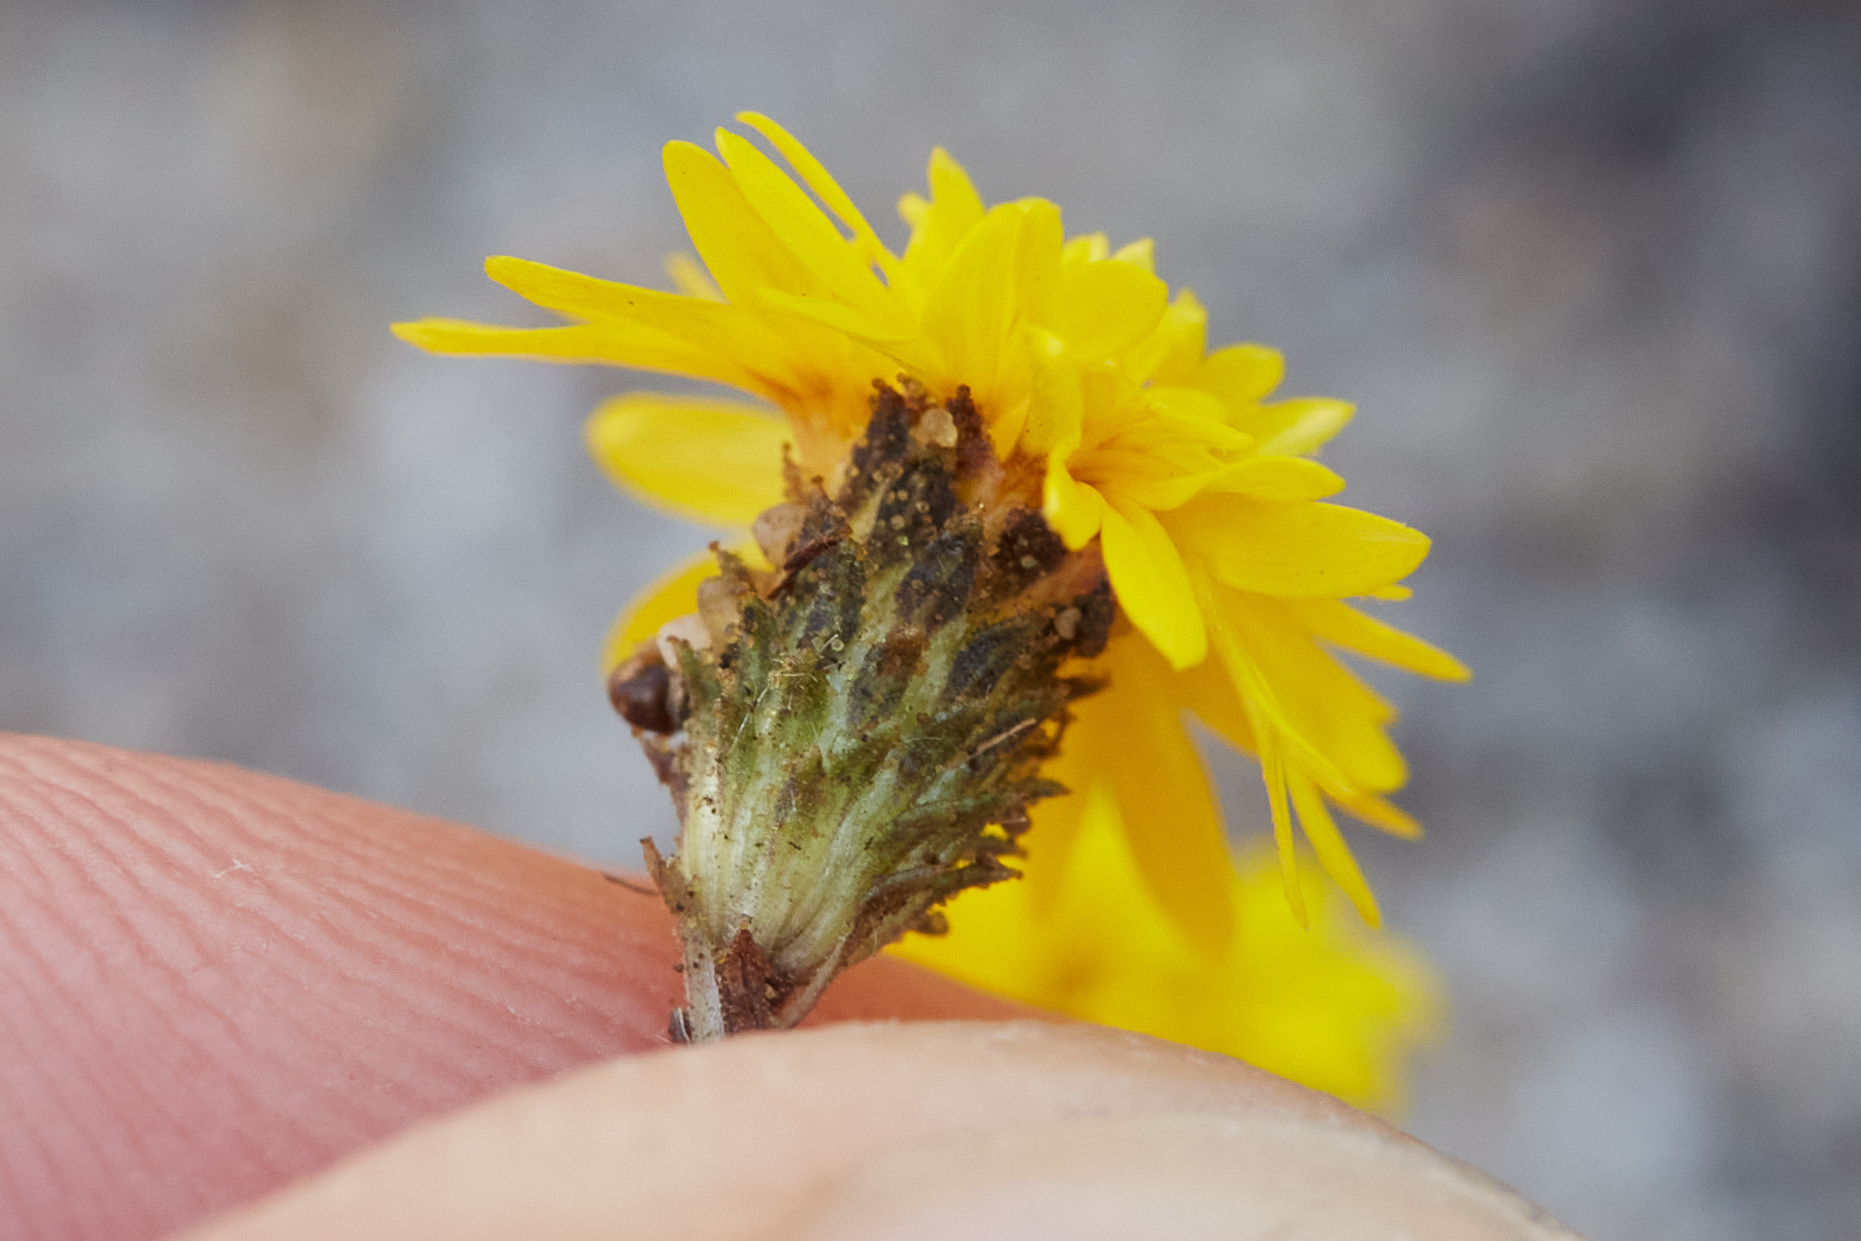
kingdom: Plantae
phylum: Tracheophyta
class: Magnoliopsida
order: Asterales
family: Asteraceae
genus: Lessingia
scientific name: Lessingia pectinata
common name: Valley lessingia
